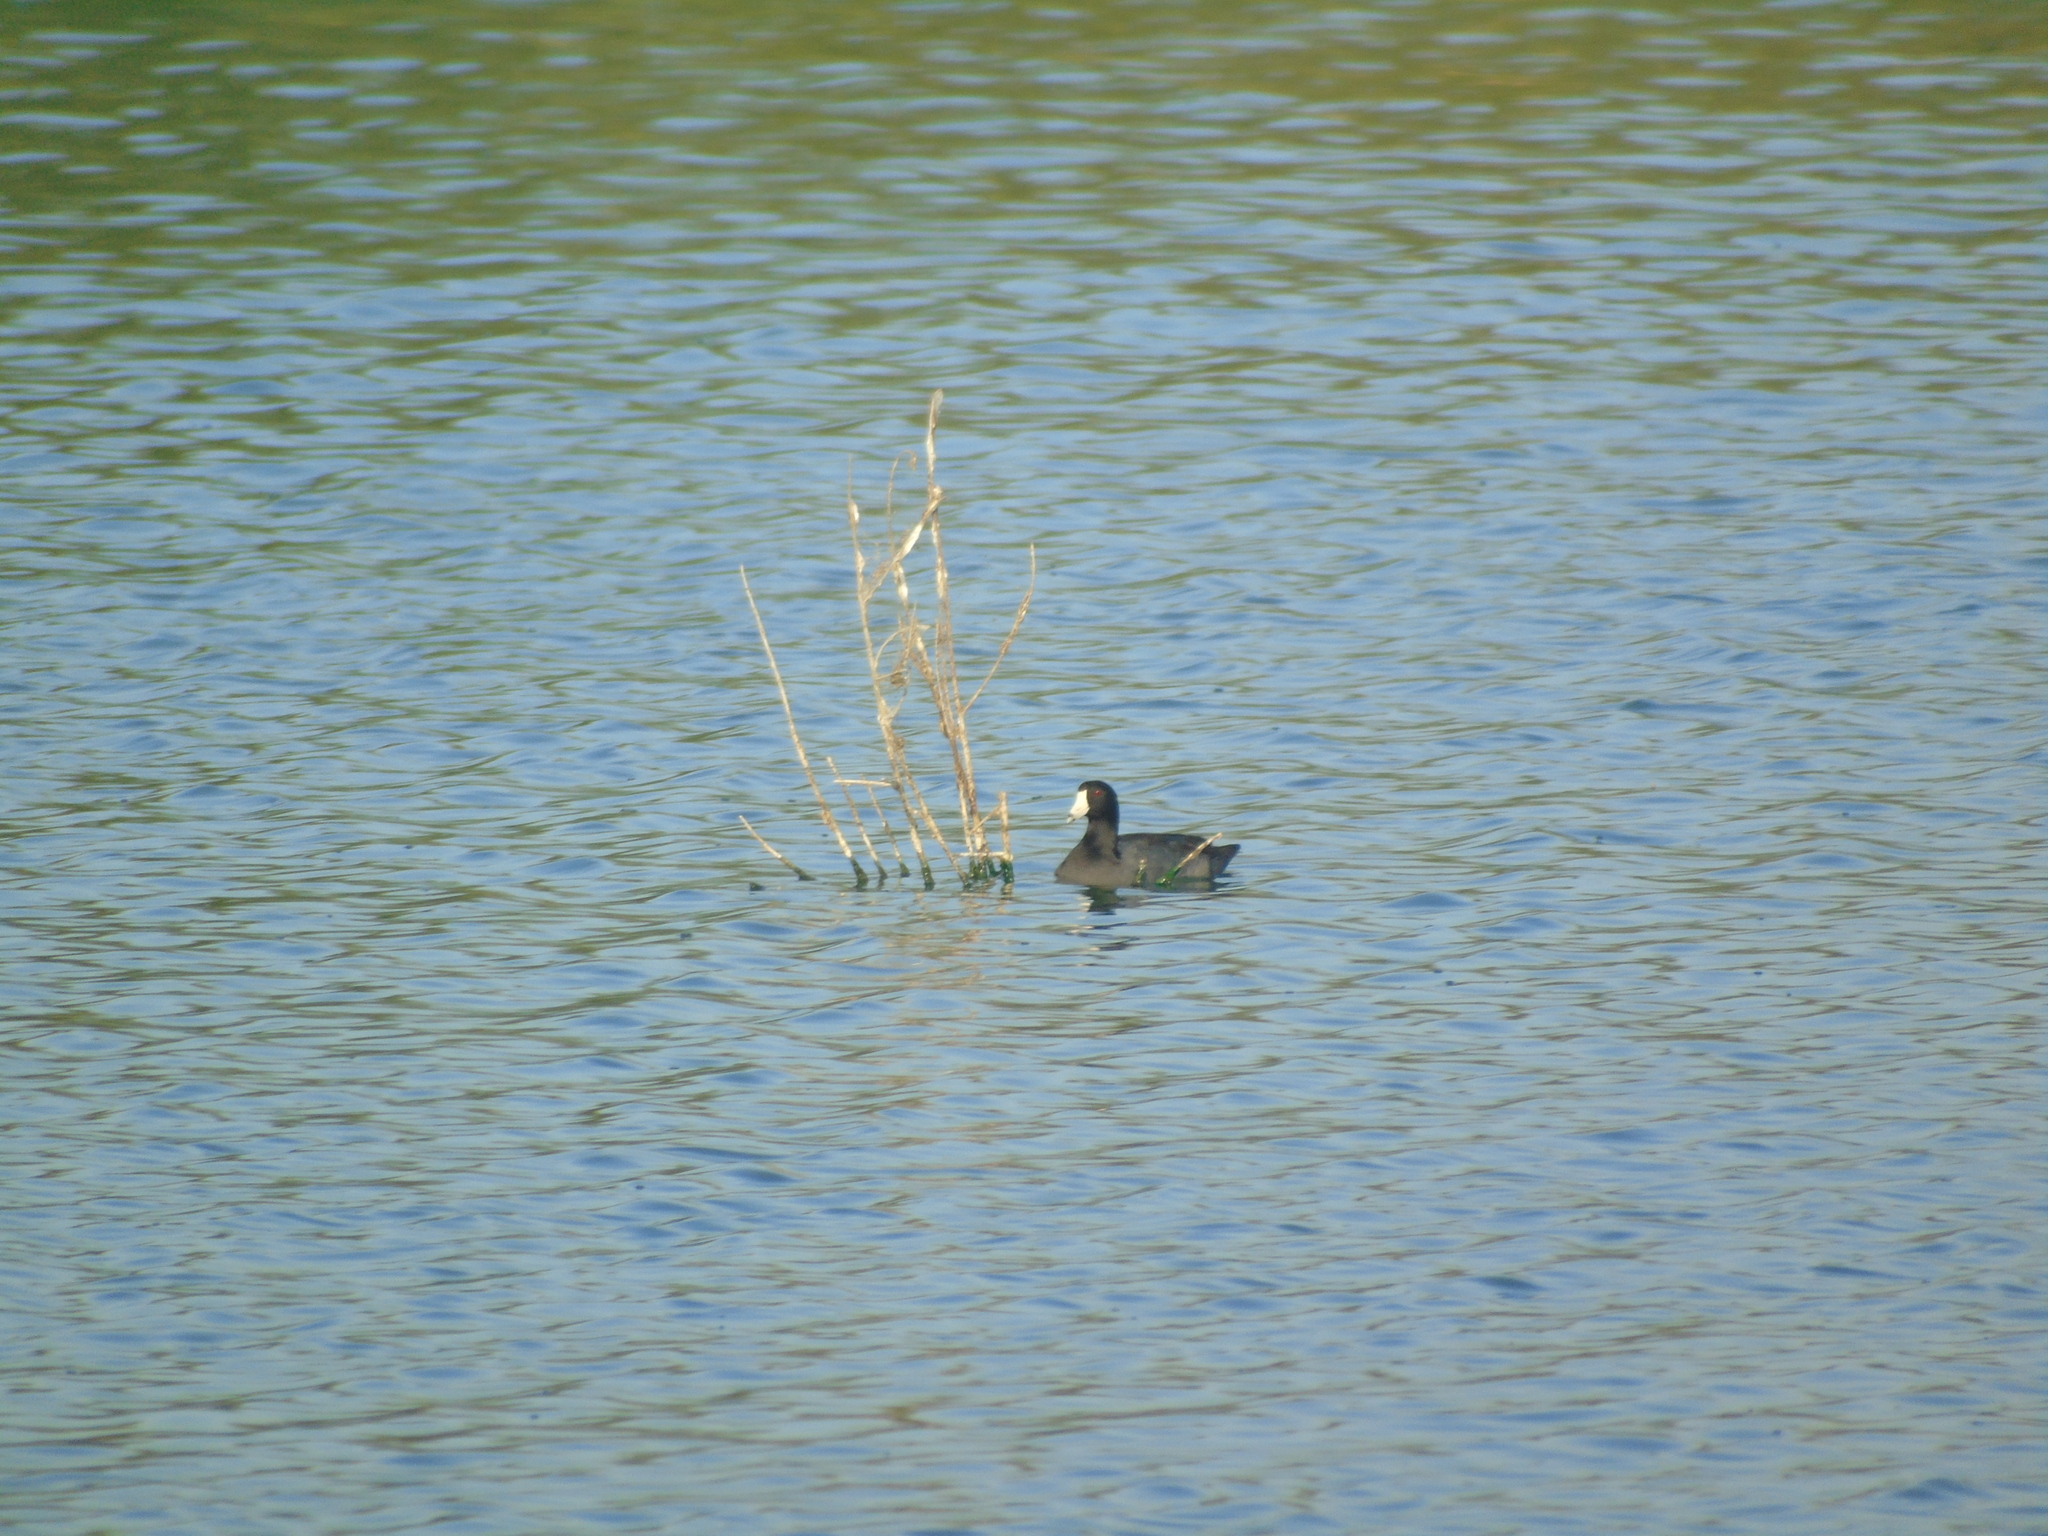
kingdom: Animalia
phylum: Chordata
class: Aves
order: Gruiformes
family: Rallidae
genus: Fulica
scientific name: Fulica americana
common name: American coot
